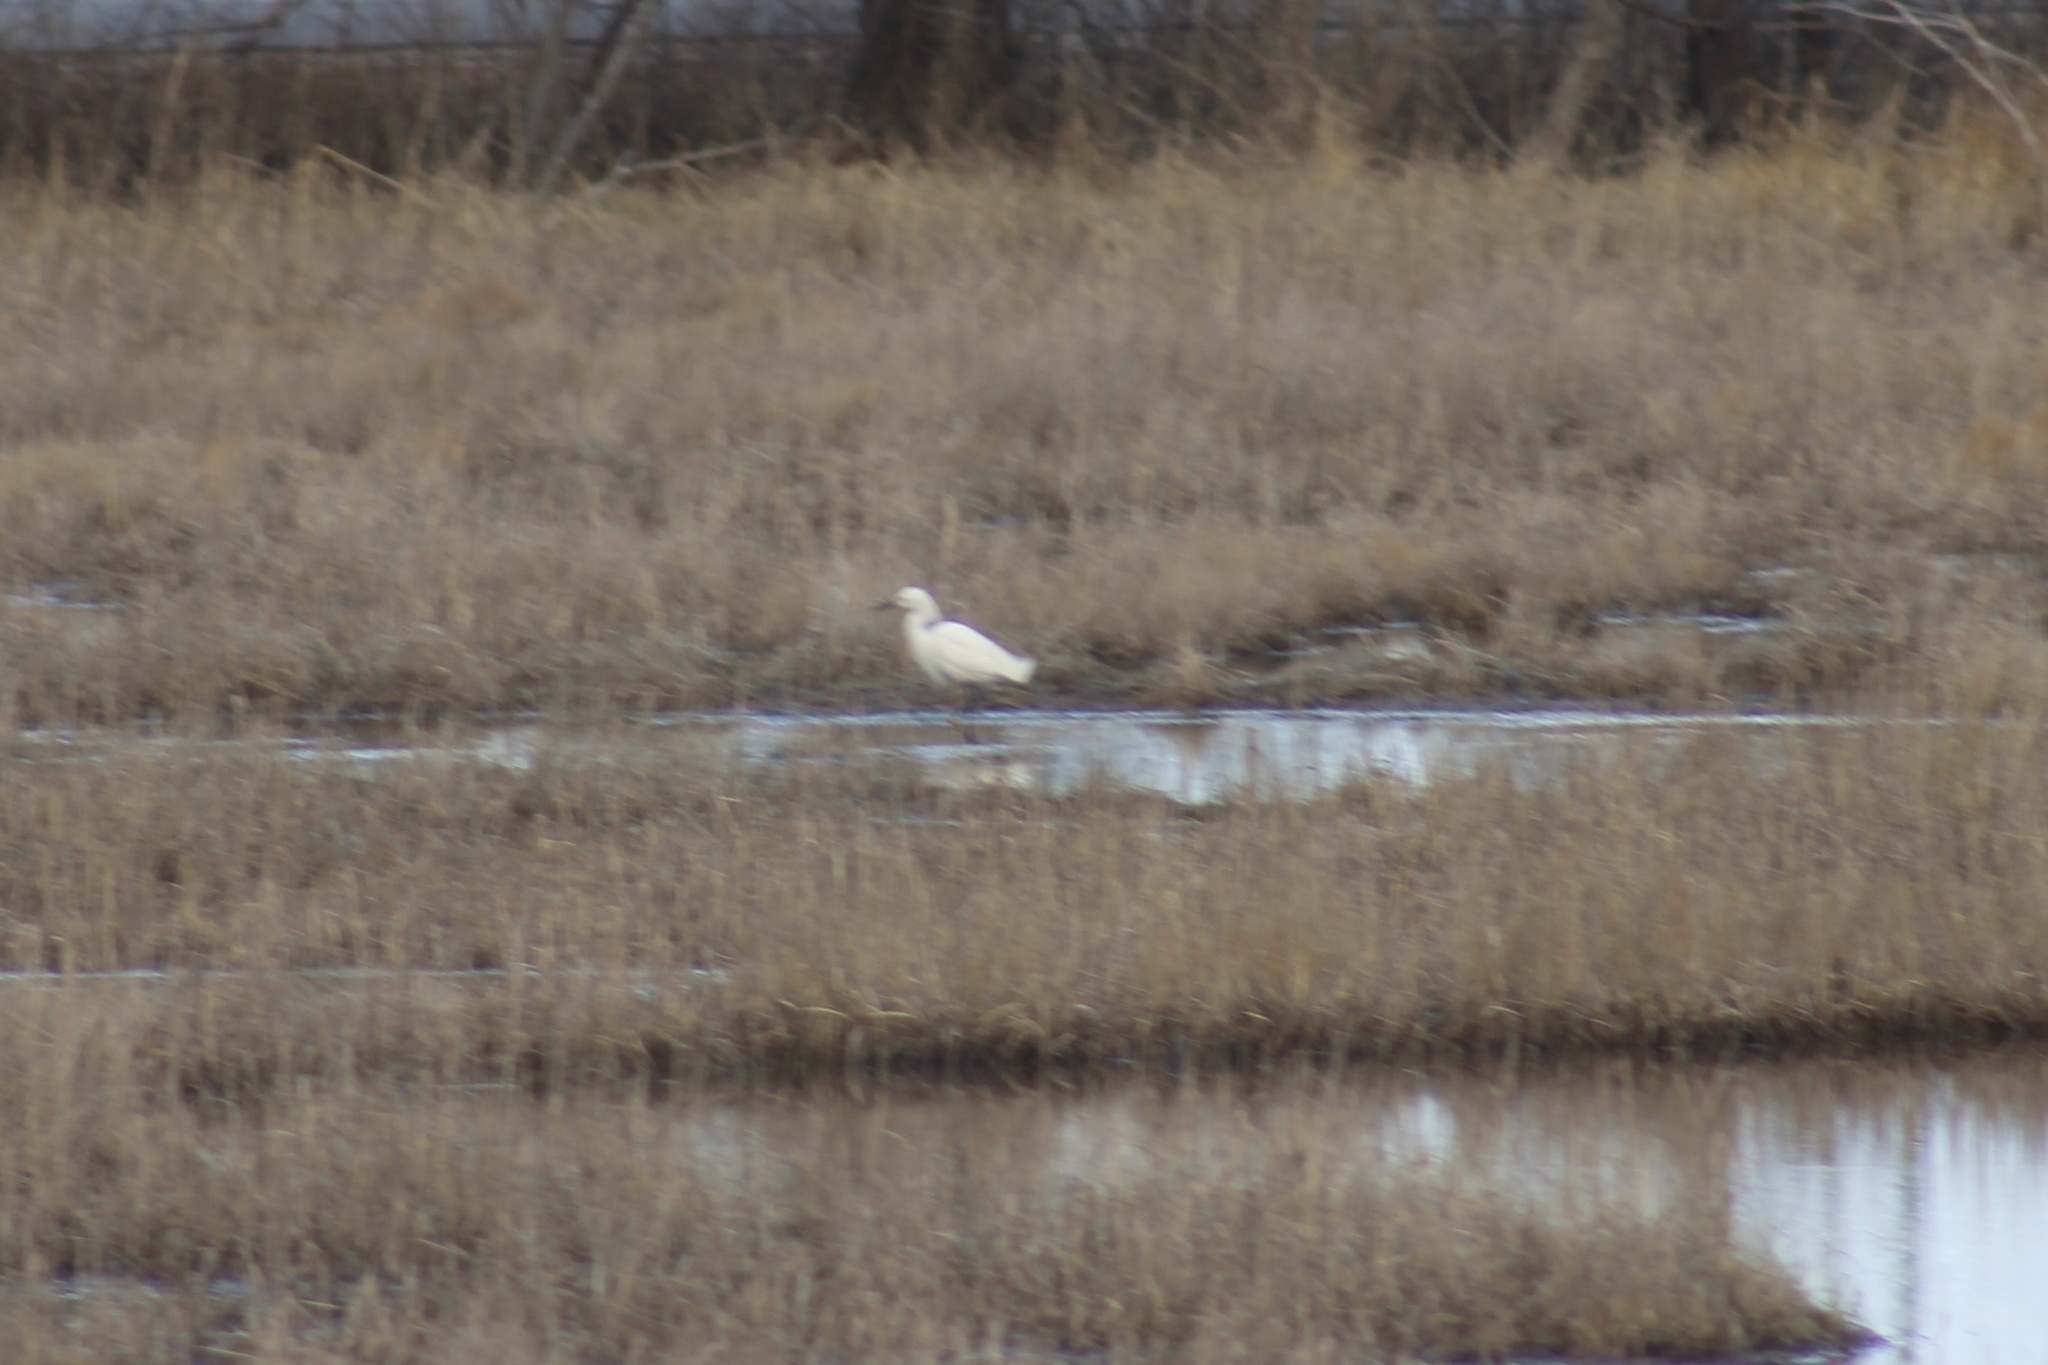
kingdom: Animalia
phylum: Chordata
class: Aves
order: Pelecaniformes
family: Ardeidae
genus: Egretta
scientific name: Egretta thula
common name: Snowy egret
